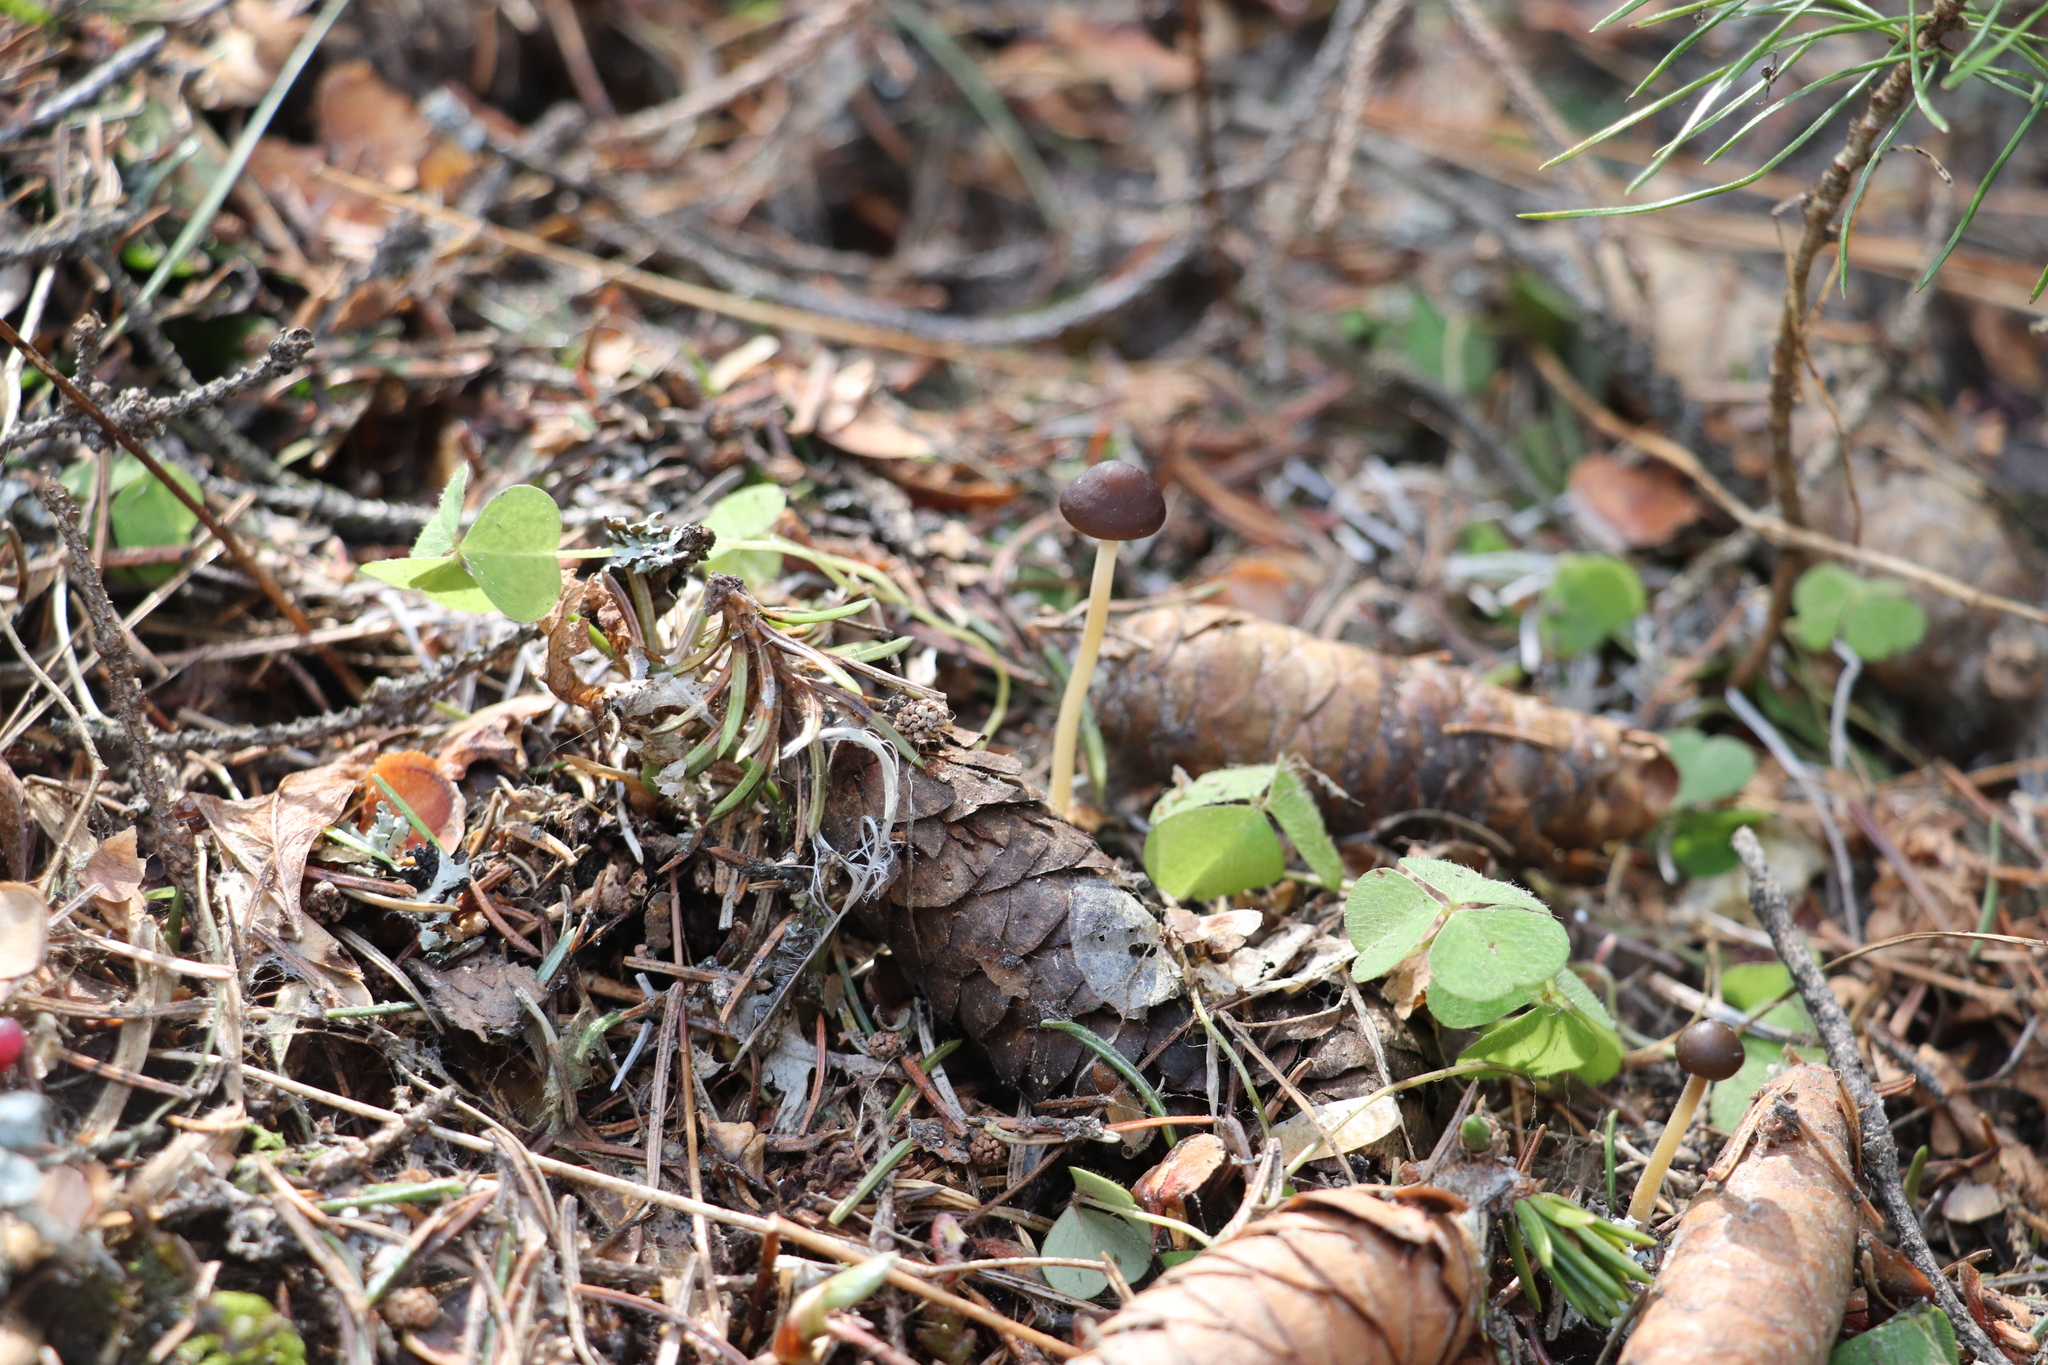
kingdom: Fungi
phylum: Basidiomycota
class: Agaricomycetes
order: Agaricales
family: Physalacriaceae
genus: Strobilurus
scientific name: Strobilurus esculentus
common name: Sprucecone cap
